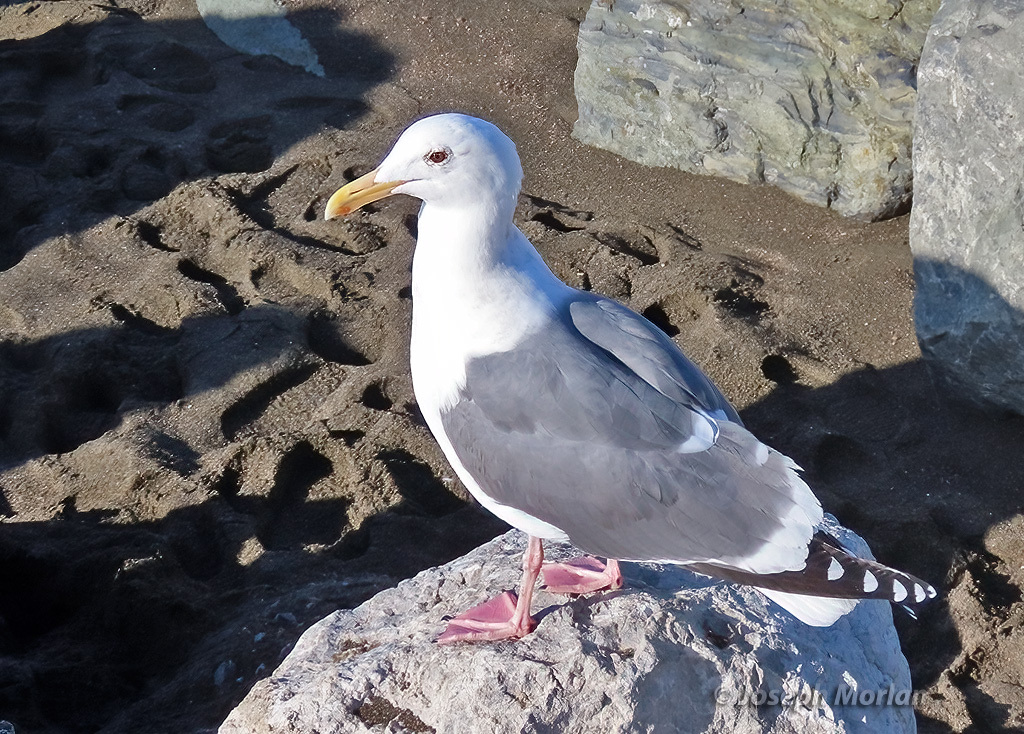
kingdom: Animalia
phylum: Chordata
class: Aves
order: Charadriiformes
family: Laridae
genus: Larus
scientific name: Larus occidentalis
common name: Western gull
